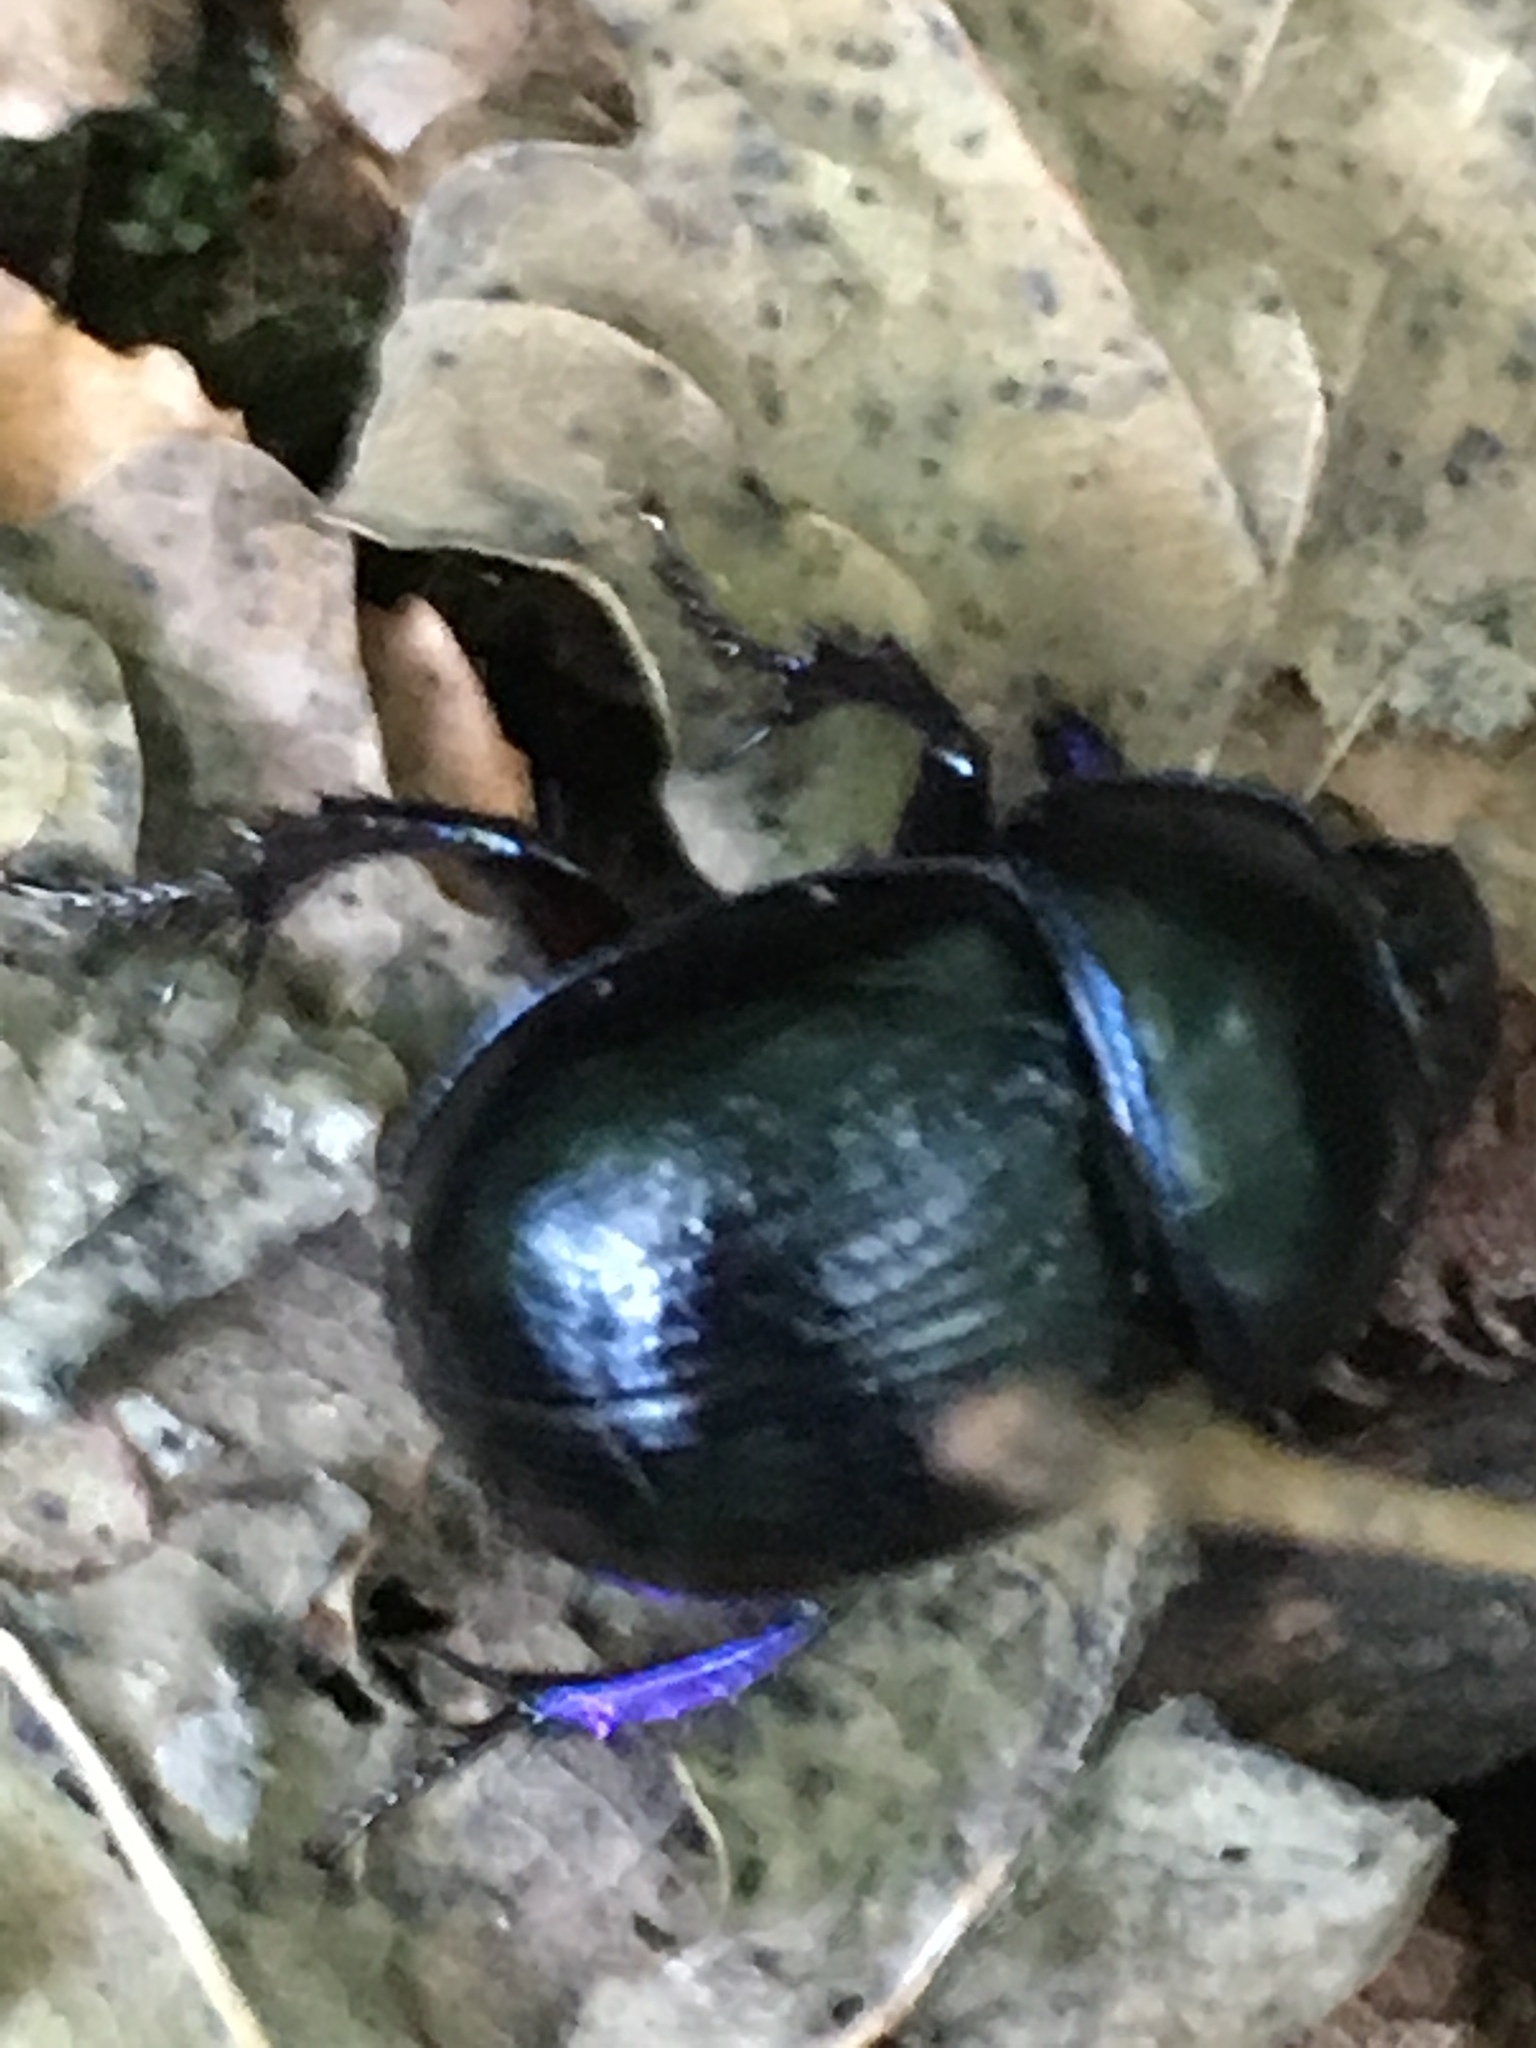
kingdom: Animalia
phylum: Arthropoda
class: Insecta
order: Coleoptera
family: Geotrupidae
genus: Anoplotrupes
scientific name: Anoplotrupes stercorosus
